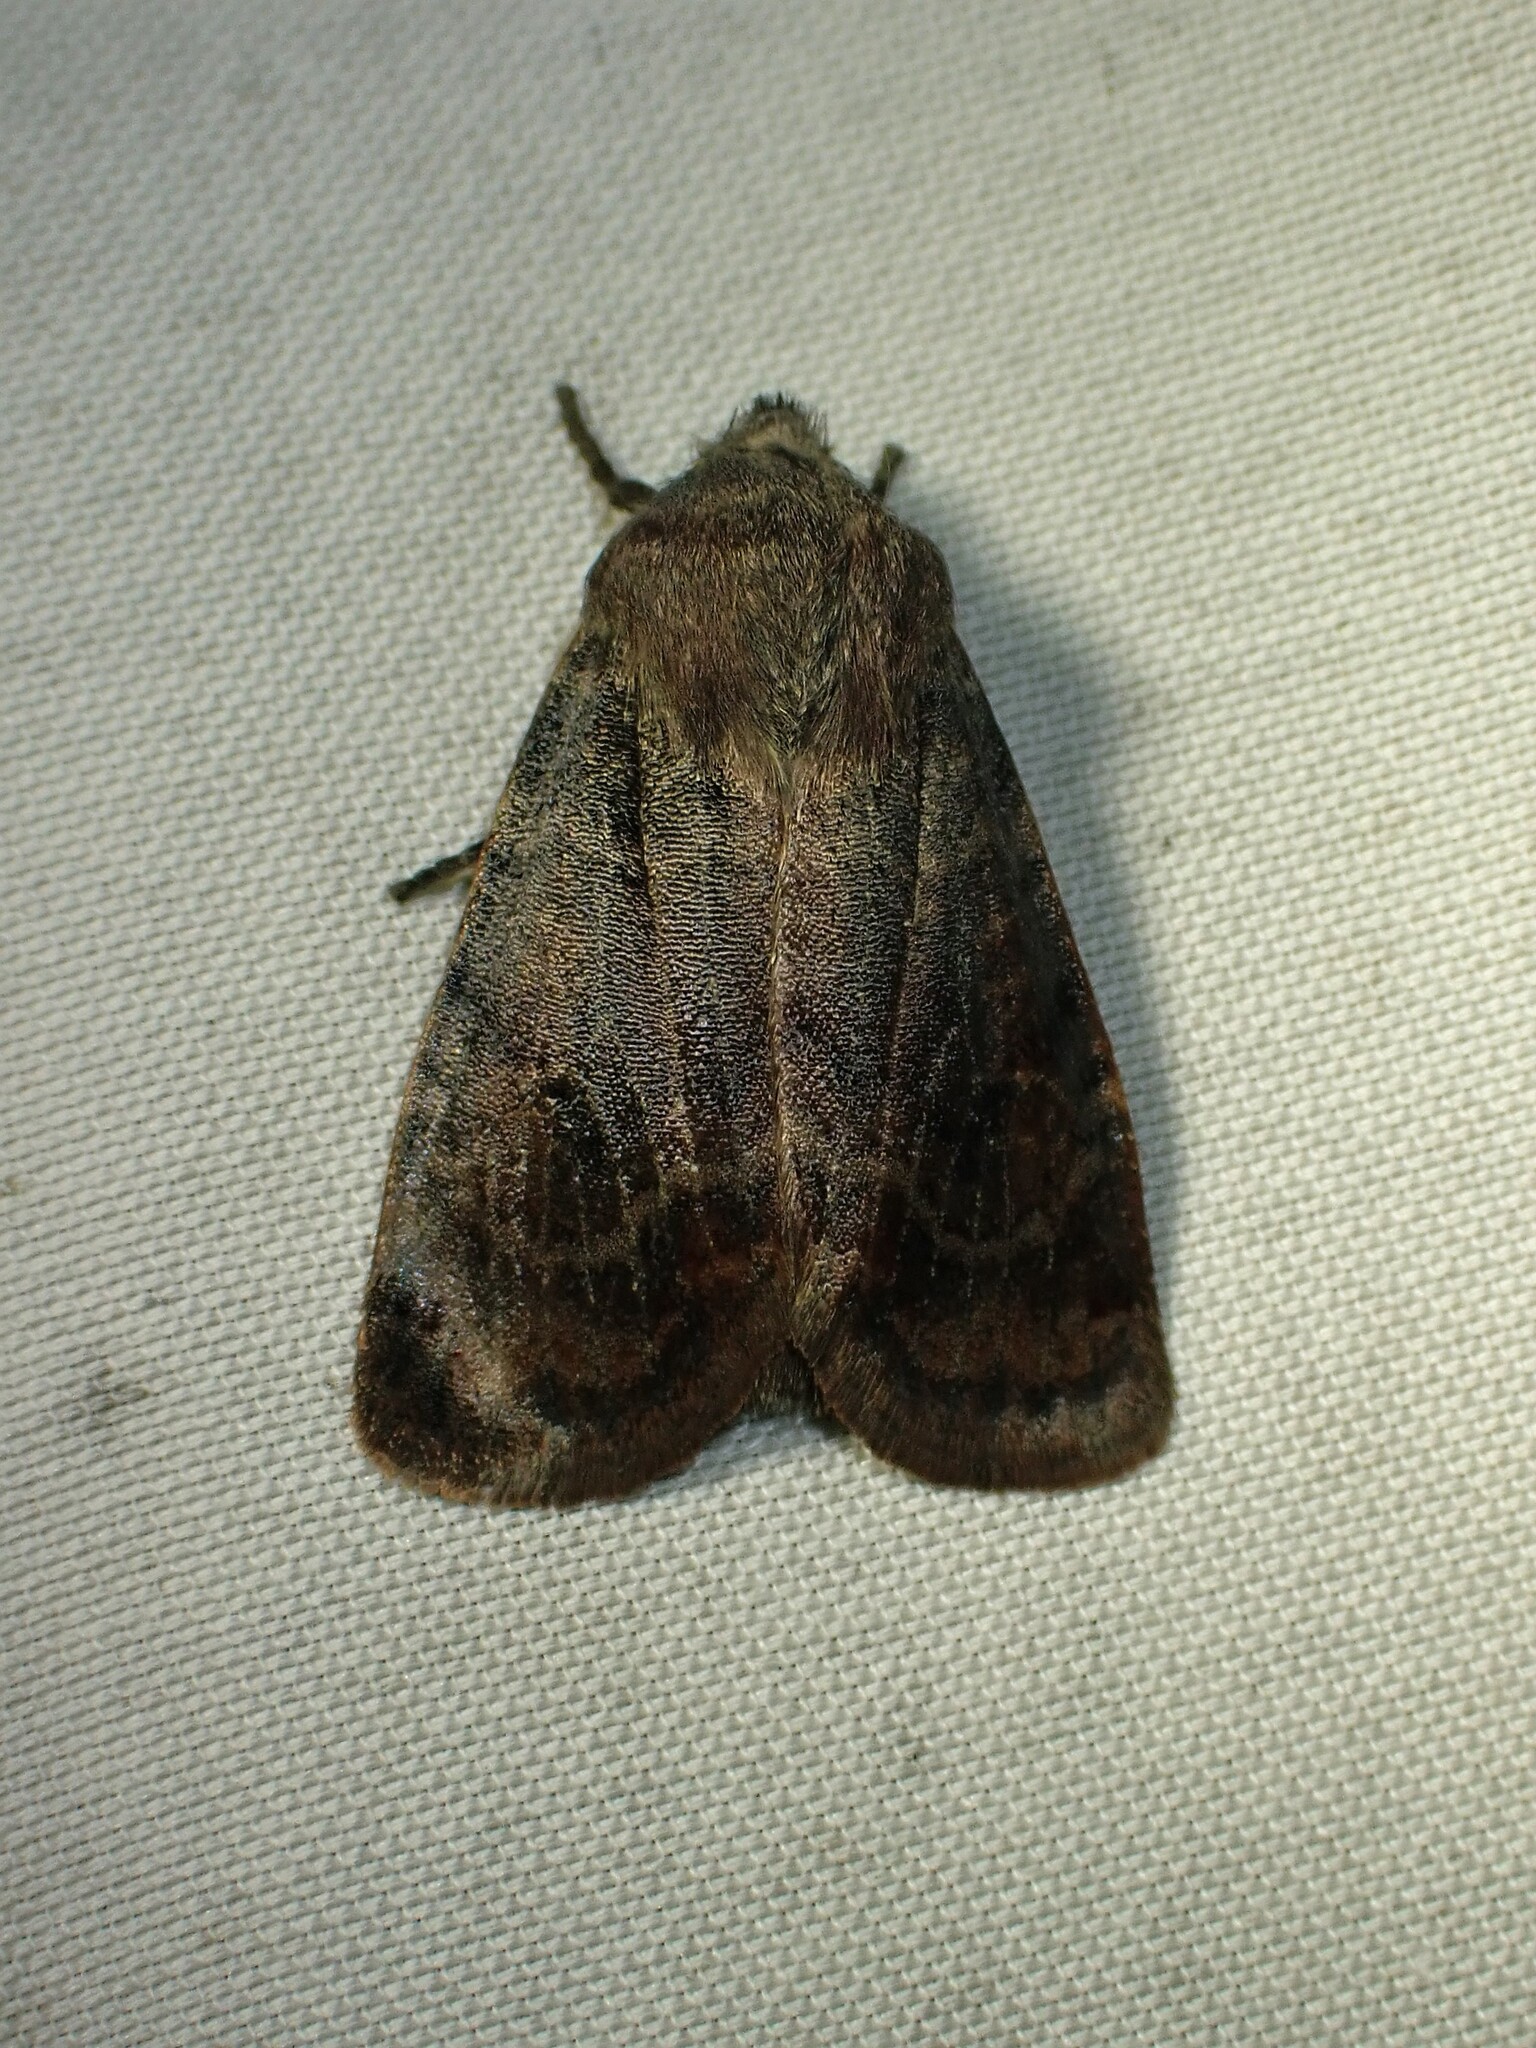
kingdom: Animalia
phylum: Arthropoda
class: Insecta
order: Lepidoptera
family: Noctuidae
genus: Homoglaea
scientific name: Homoglaea hircina
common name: Goat sallow
